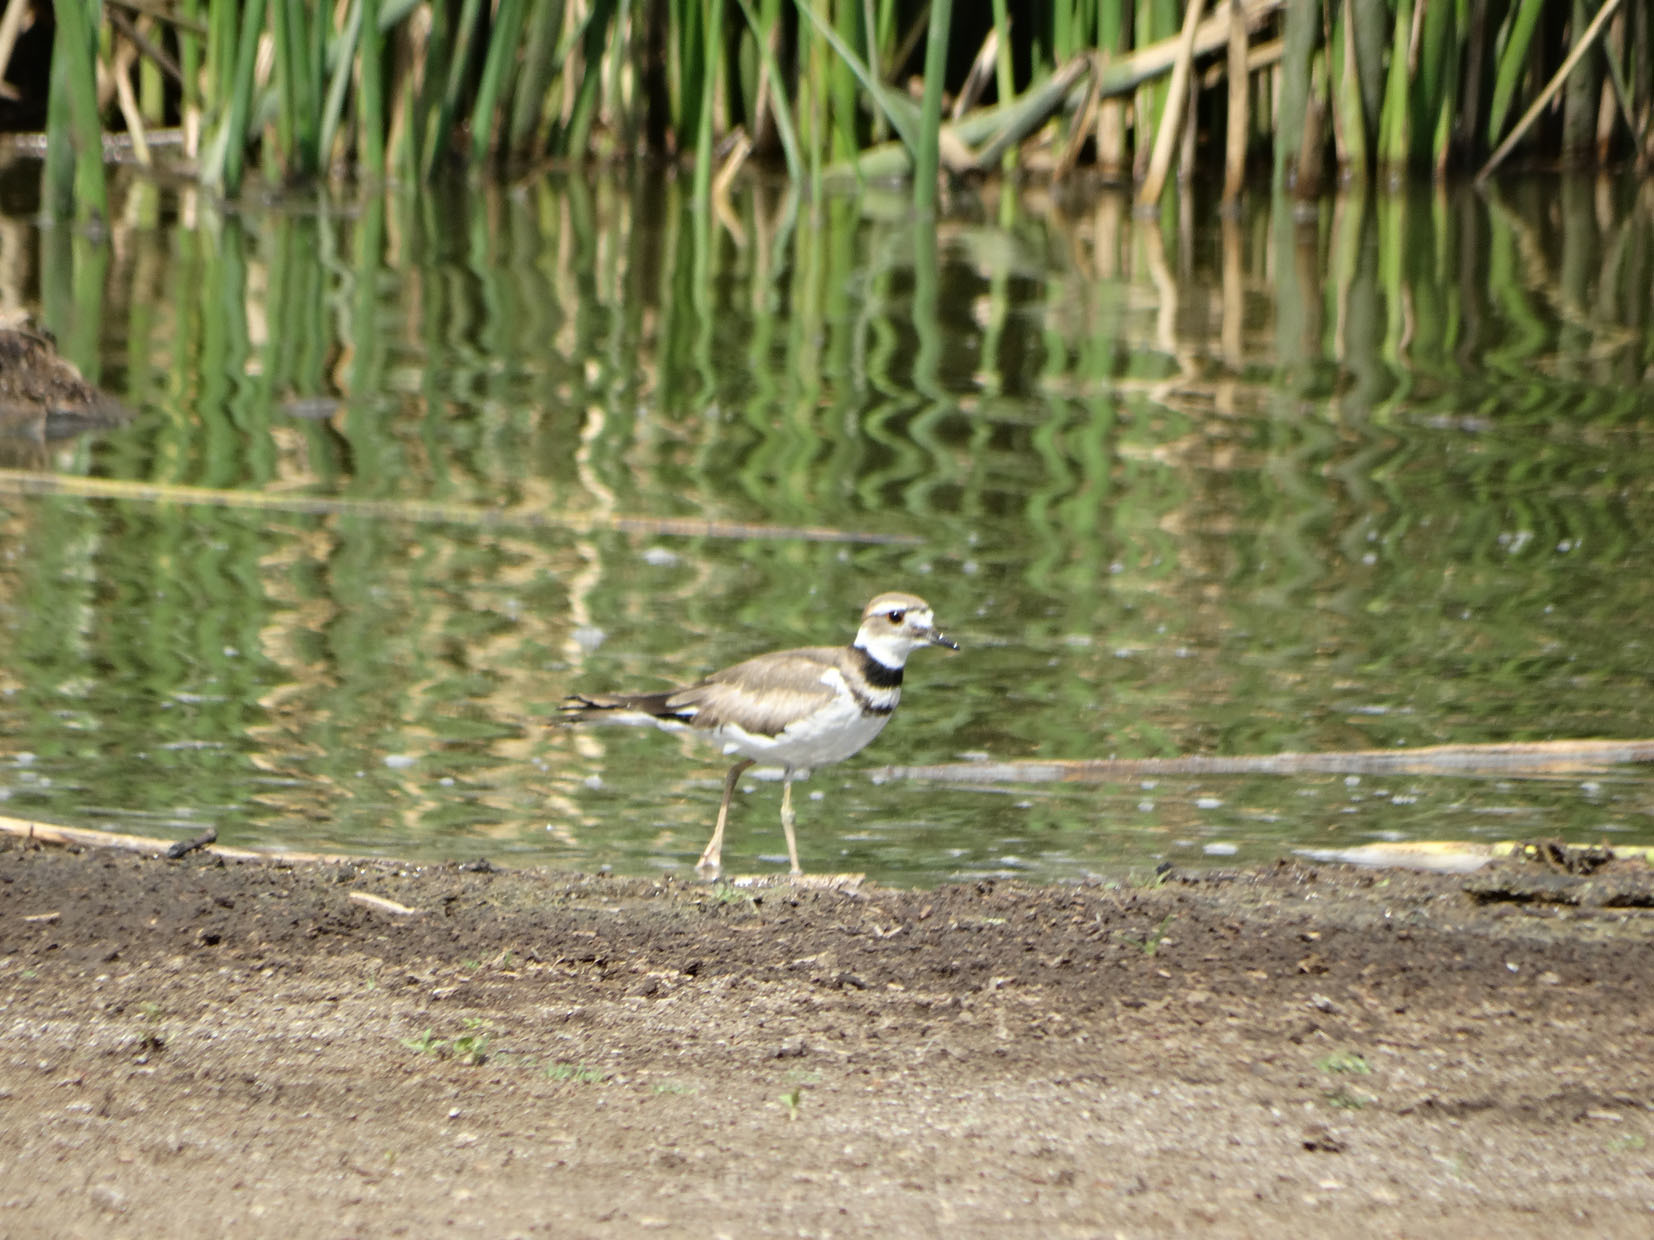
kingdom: Animalia
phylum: Chordata
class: Aves
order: Charadriiformes
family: Charadriidae
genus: Charadrius
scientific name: Charadrius vociferus
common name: Killdeer
